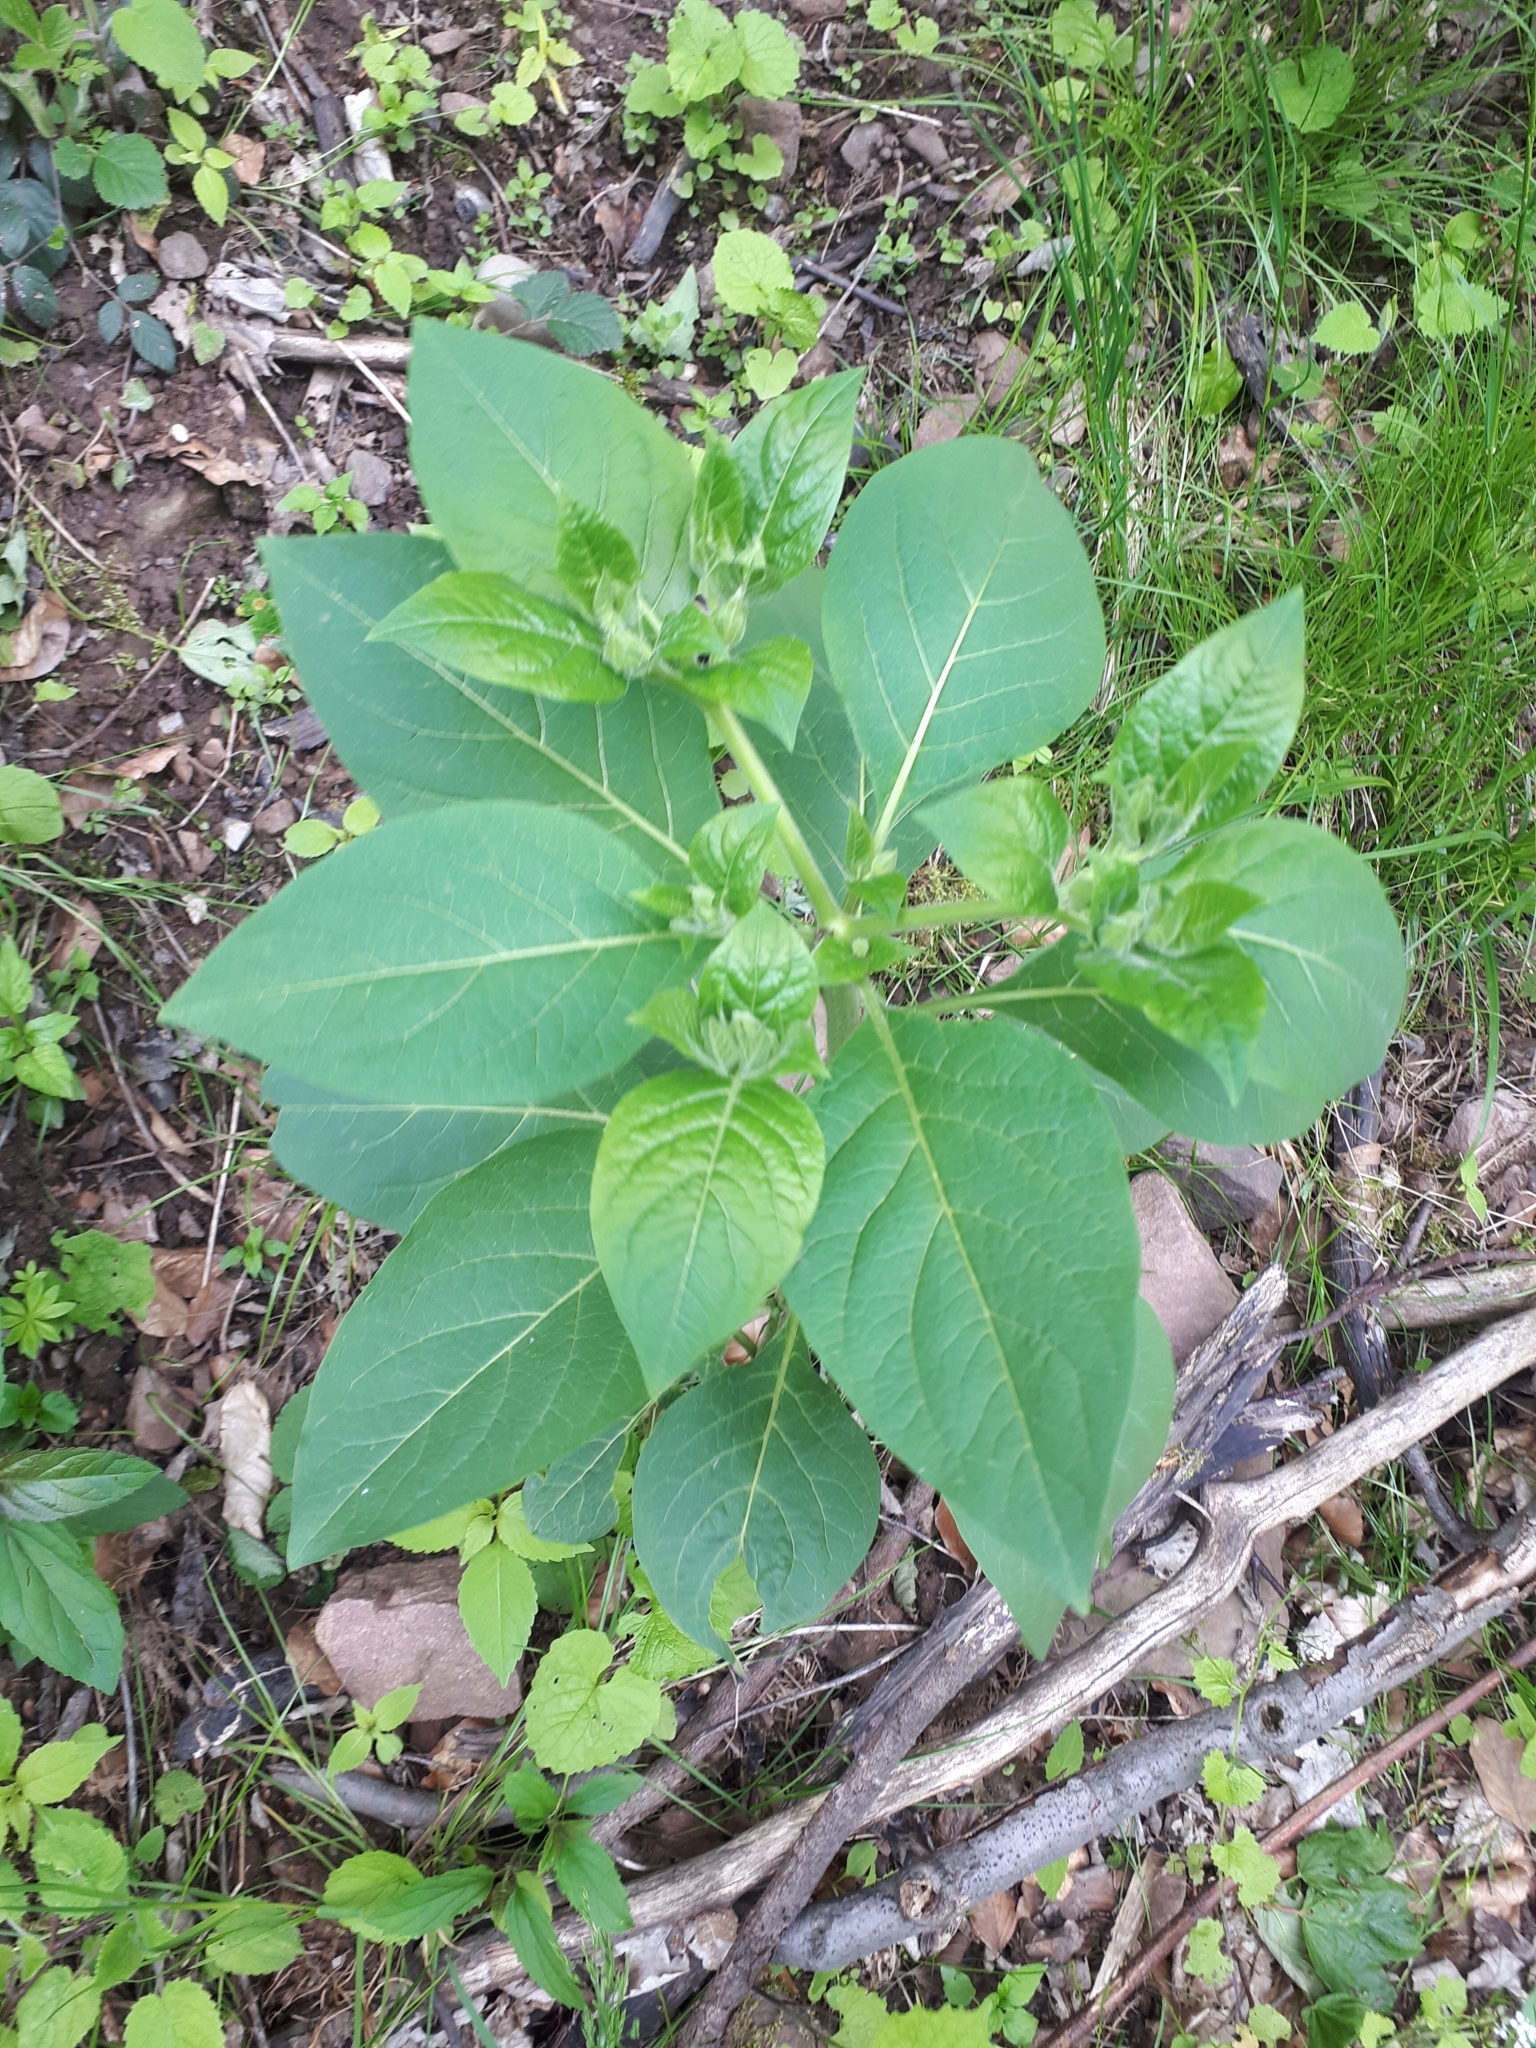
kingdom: Plantae
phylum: Tracheophyta
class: Magnoliopsida
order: Solanales
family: Solanaceae
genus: Atropa
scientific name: Atropa belladonna
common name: Deadly nightshade
